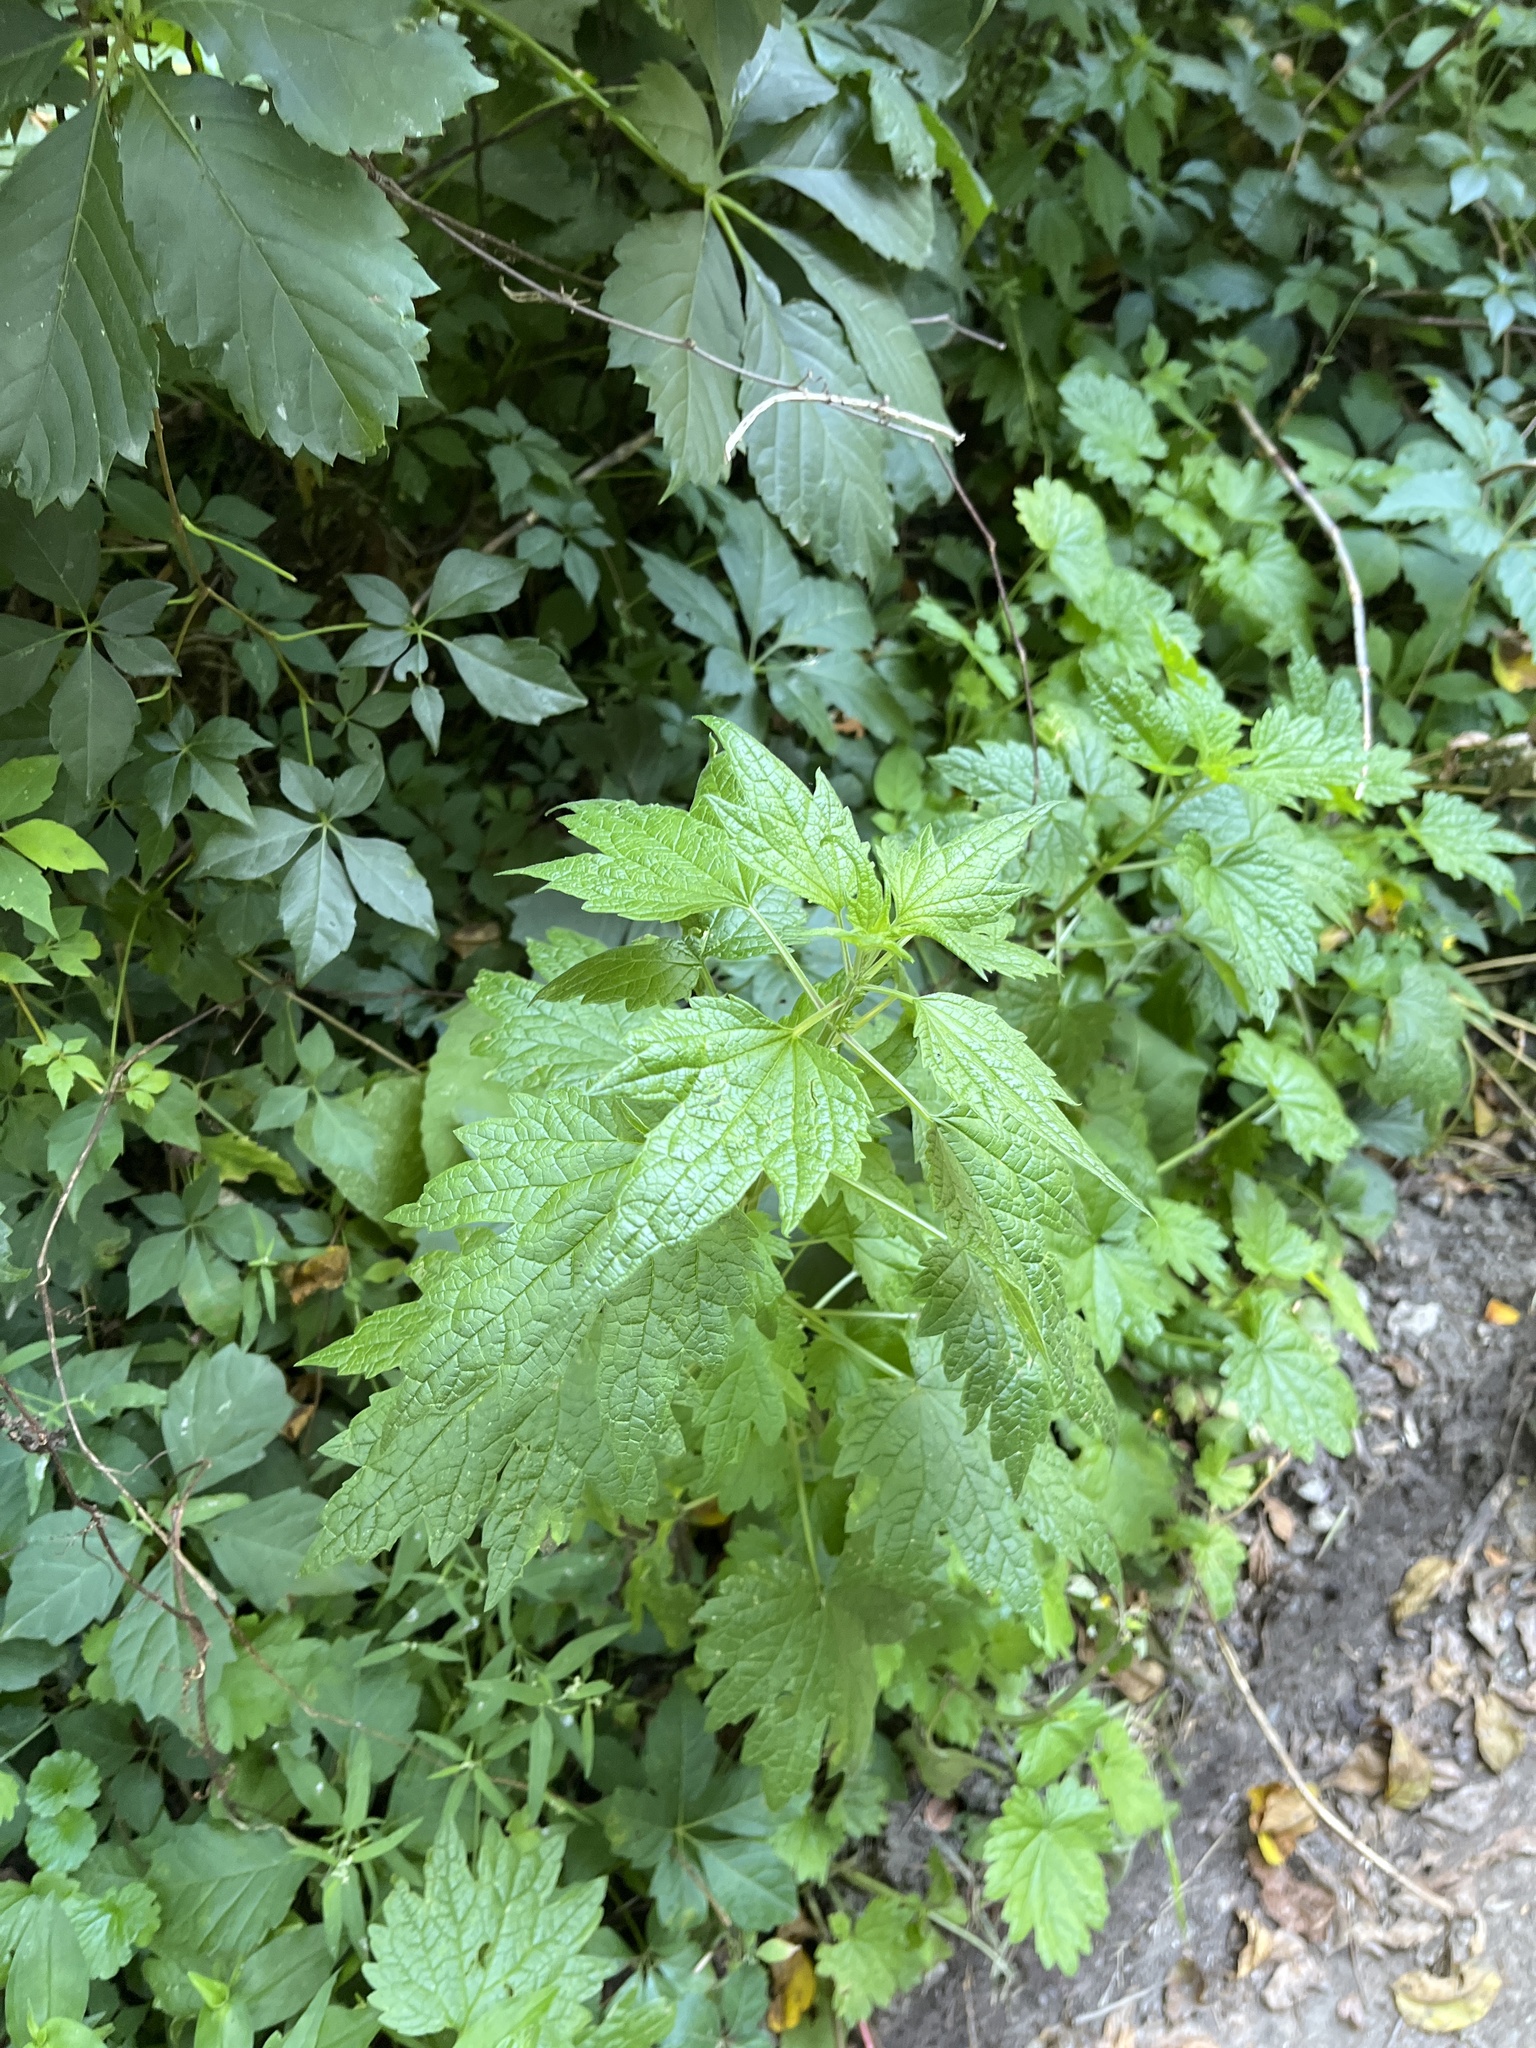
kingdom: Plantae
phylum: Tracheophyta
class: Magnoliopsida
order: Lamiales
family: Lamiaceae
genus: Leonurus
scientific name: Leonurus cardiaca
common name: Motherwort
